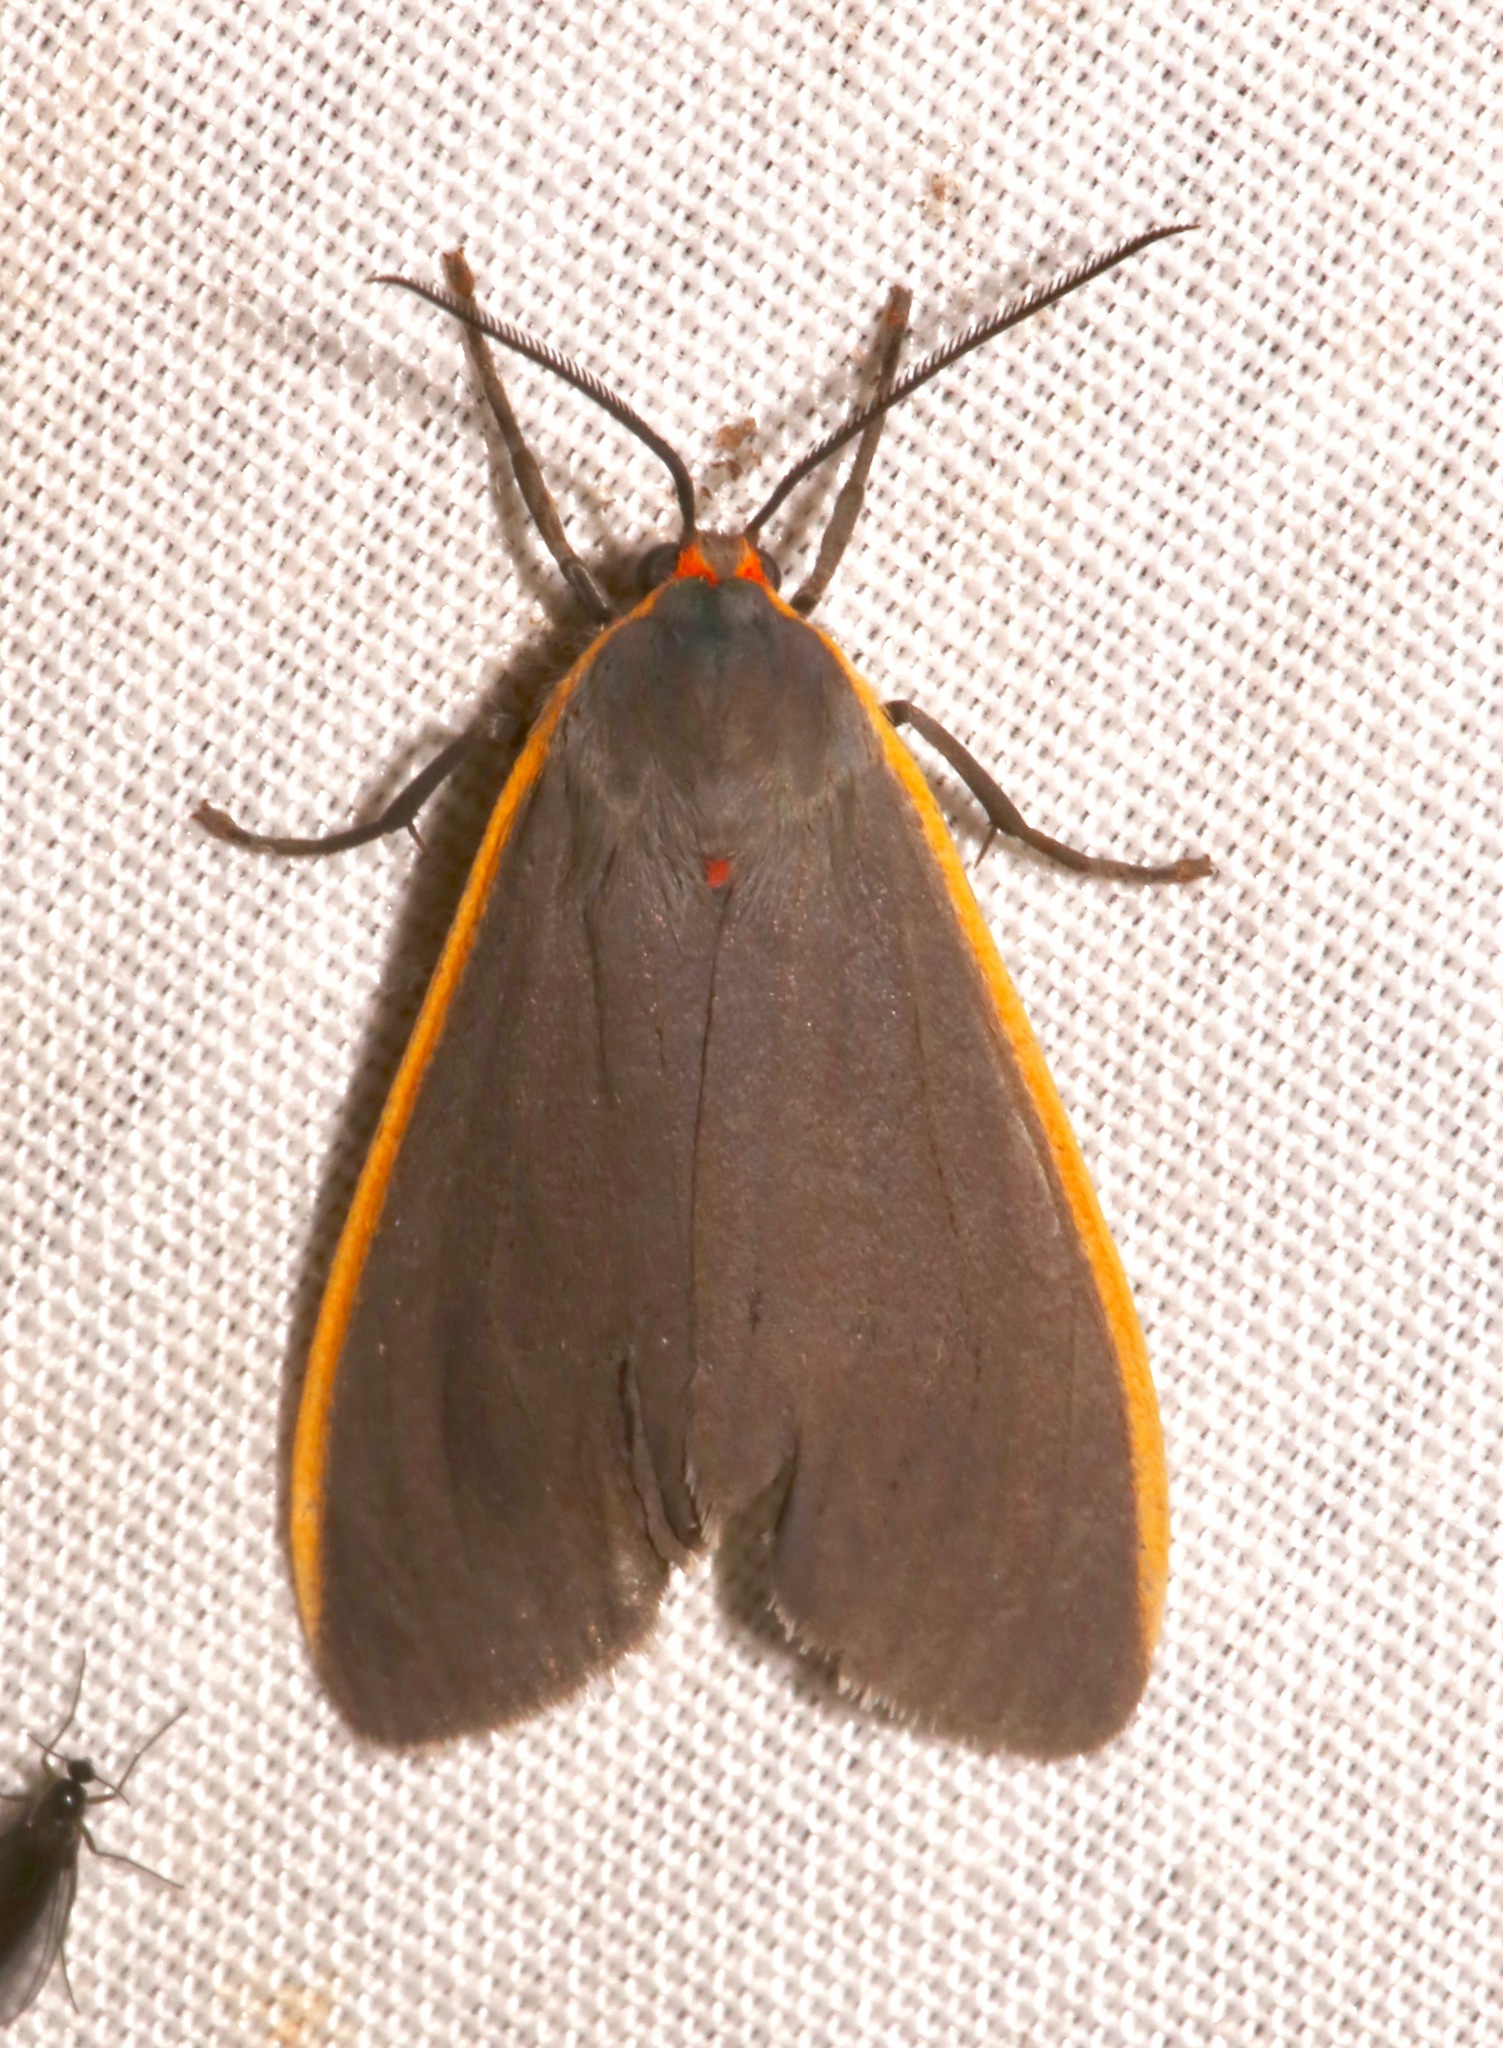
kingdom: Animalia
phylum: Arthropoda
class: Insecta
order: Lepidoptera
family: Erebidae
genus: Euchaetes
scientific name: Euchaetes antica
